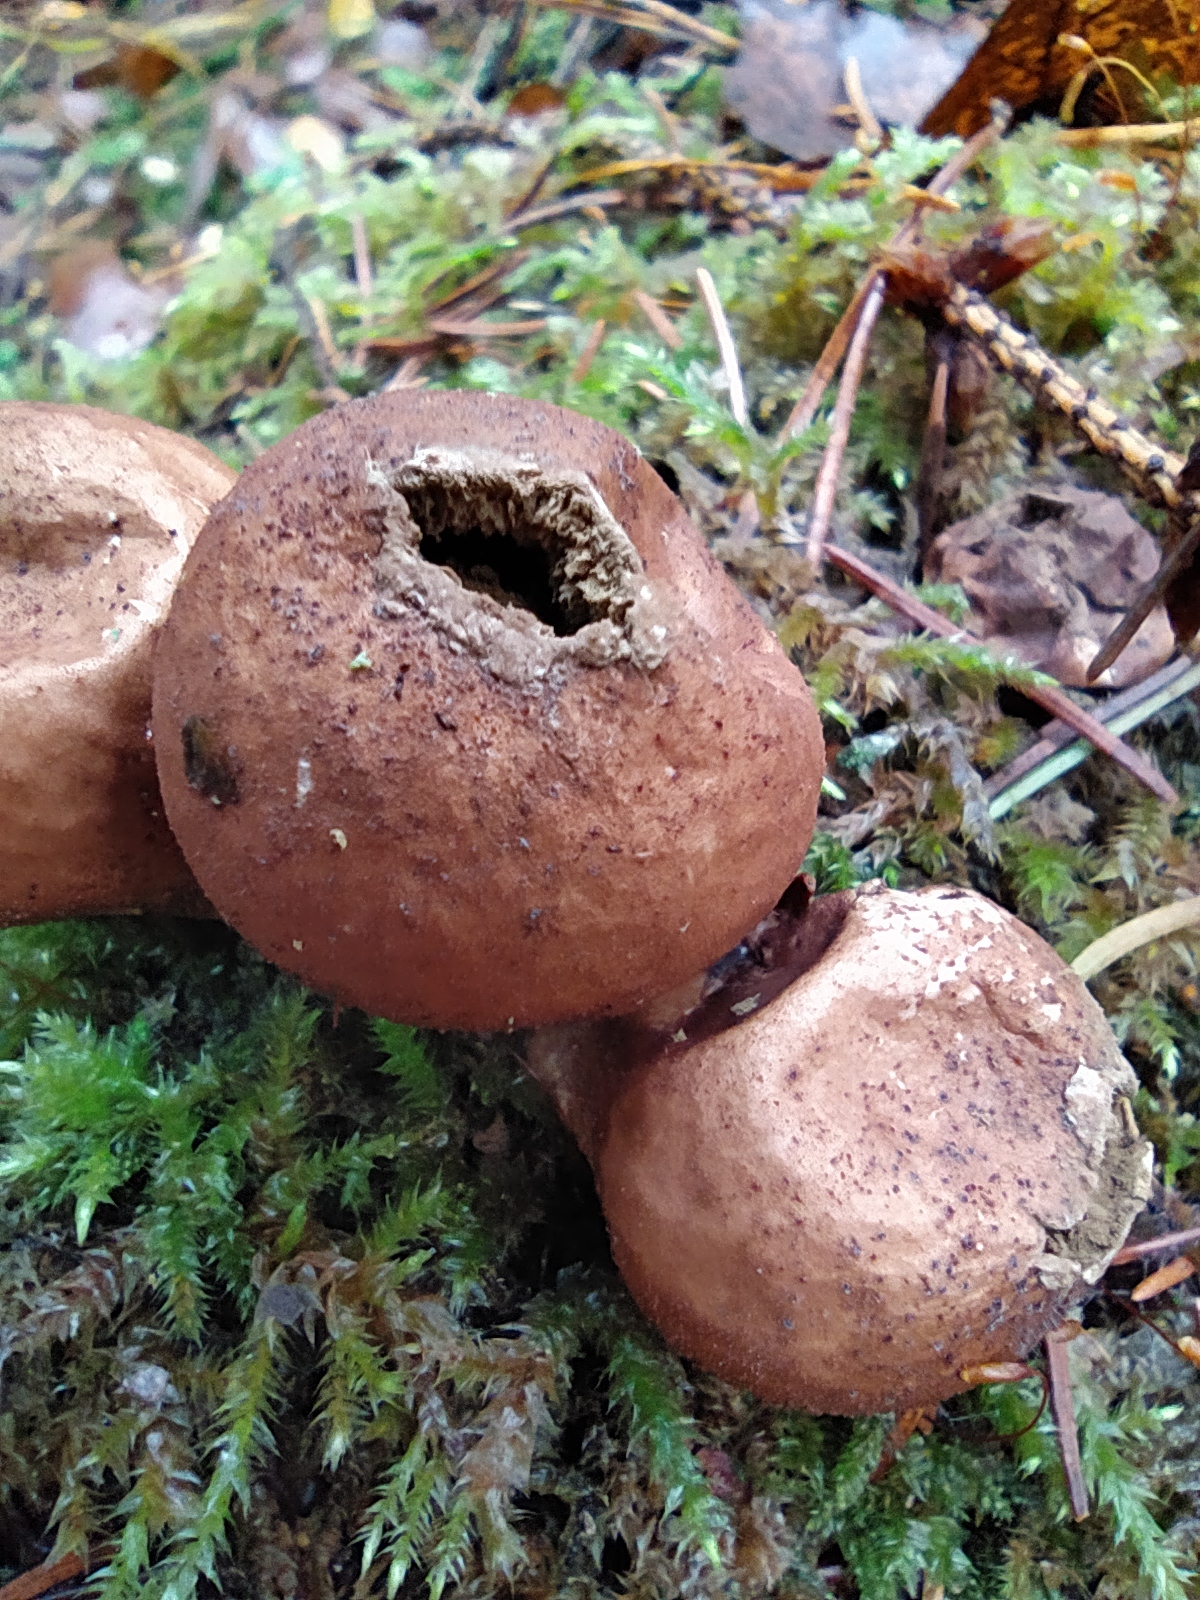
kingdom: Fungi
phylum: Basidiomycota
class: Agaricomycetes
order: Agaricales
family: Lycoperdaceae
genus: Apioperdon
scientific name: Apioperdon pyriforme
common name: Pear-shaped puffball
